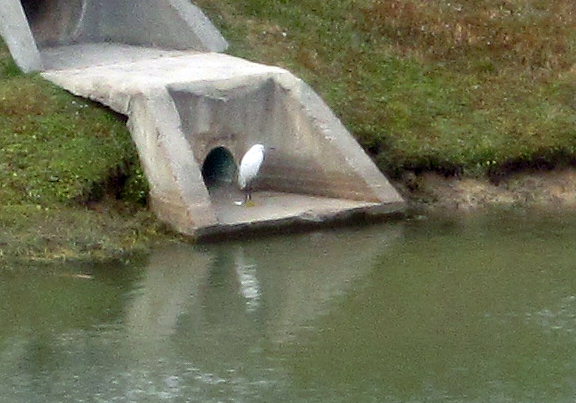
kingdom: Animalia
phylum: Chordata
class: Aves
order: Pelecaniformes
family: Ardeidae
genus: Egretta
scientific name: Egretta thula
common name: Snowy egret
